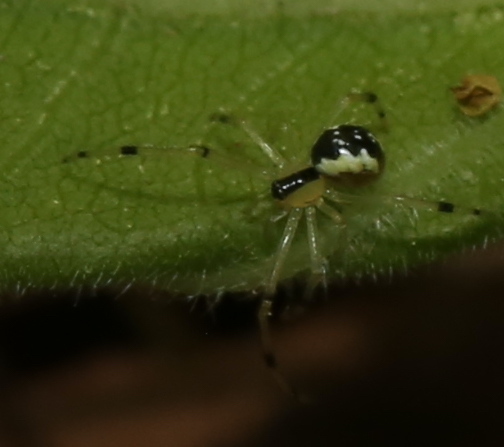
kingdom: Animalia
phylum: Arthropoda
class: Arachnida
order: Araneae
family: Theridiidae
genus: Phylloneta
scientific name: Phylloneta pictipes
